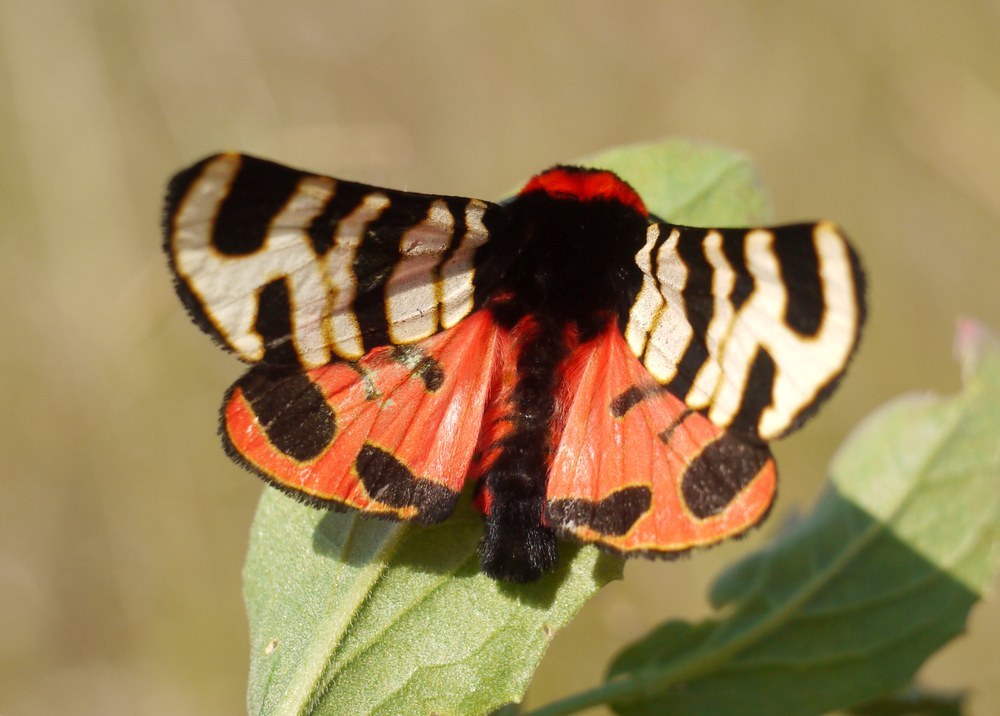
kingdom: Animalia
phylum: Arthropoda
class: Insecta
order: Lepidoptera
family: Erebidae
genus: Eucharia
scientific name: Eucharia festiva
